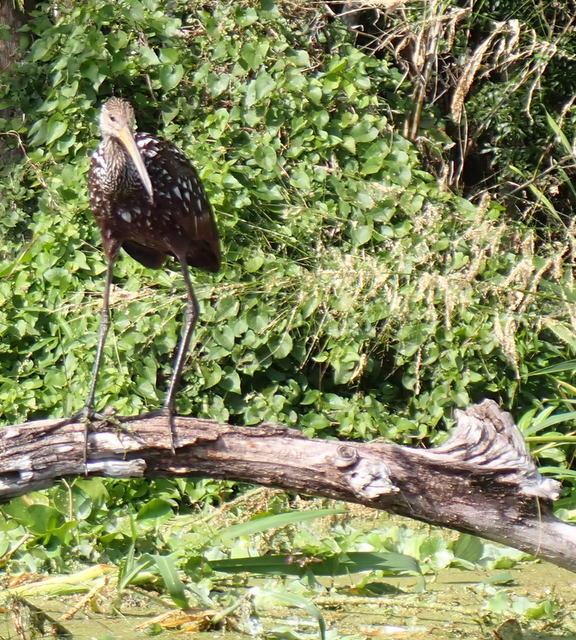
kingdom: Animalia
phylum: Chordata
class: Aves
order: Gruiformes
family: Aramidae
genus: Aramus
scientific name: Aramus guarauna
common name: Limpkin
